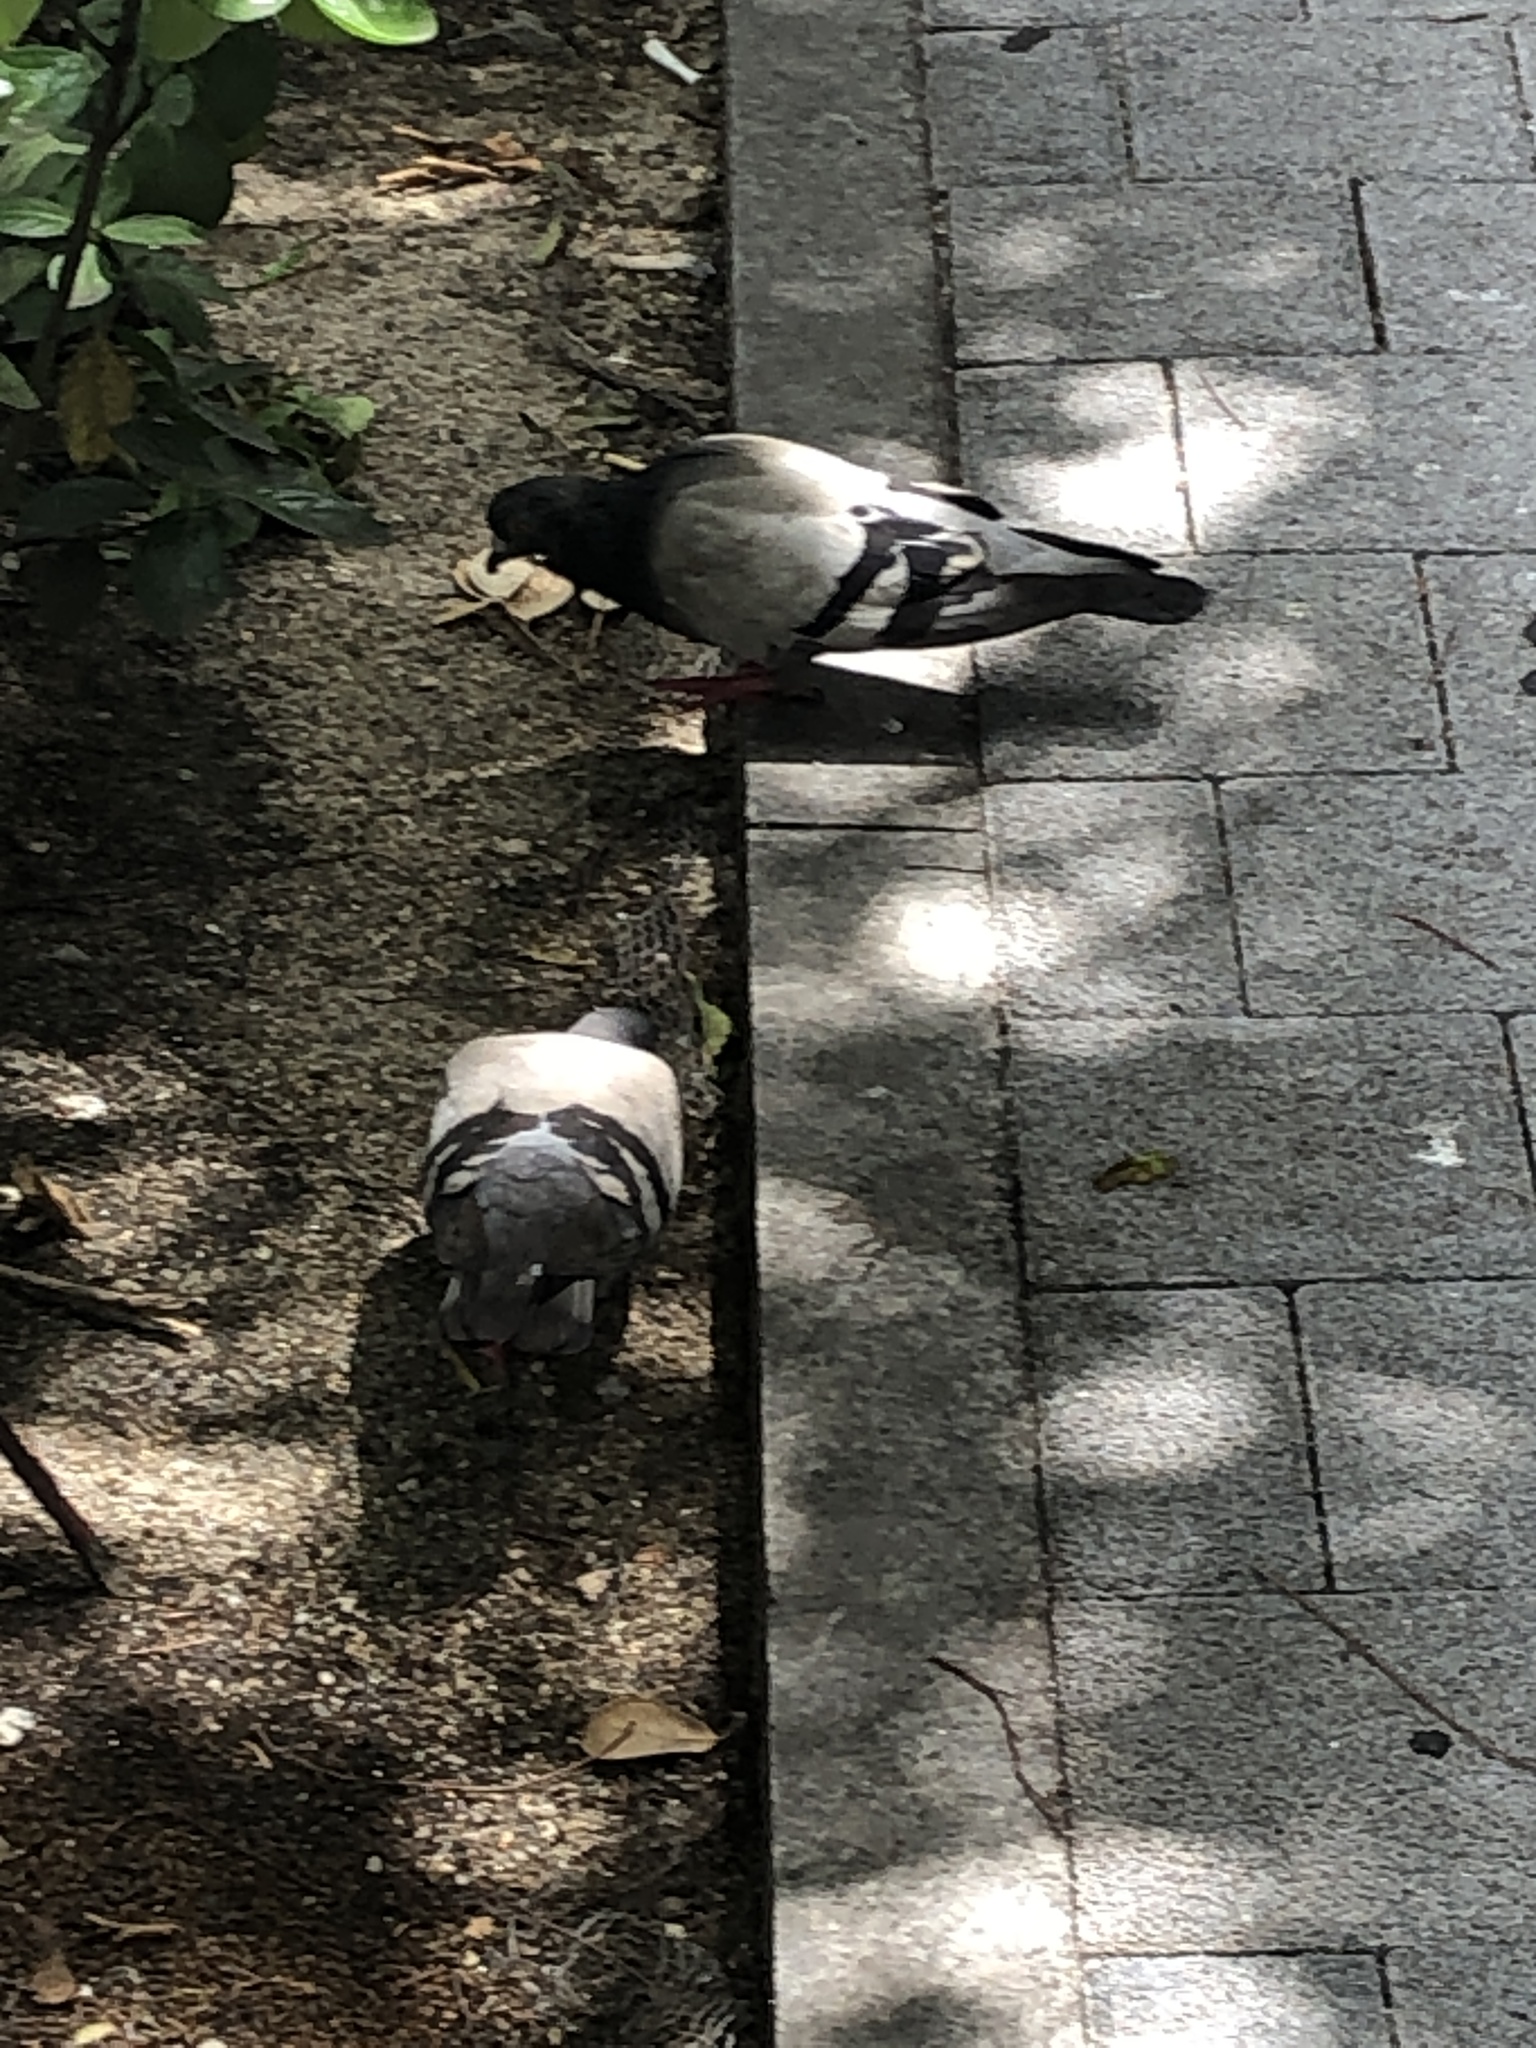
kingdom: Animalia
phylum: Chordata
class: Aves
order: Columbiformes
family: Columbidae
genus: Columba
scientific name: Columba livia
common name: Rock pigeon
